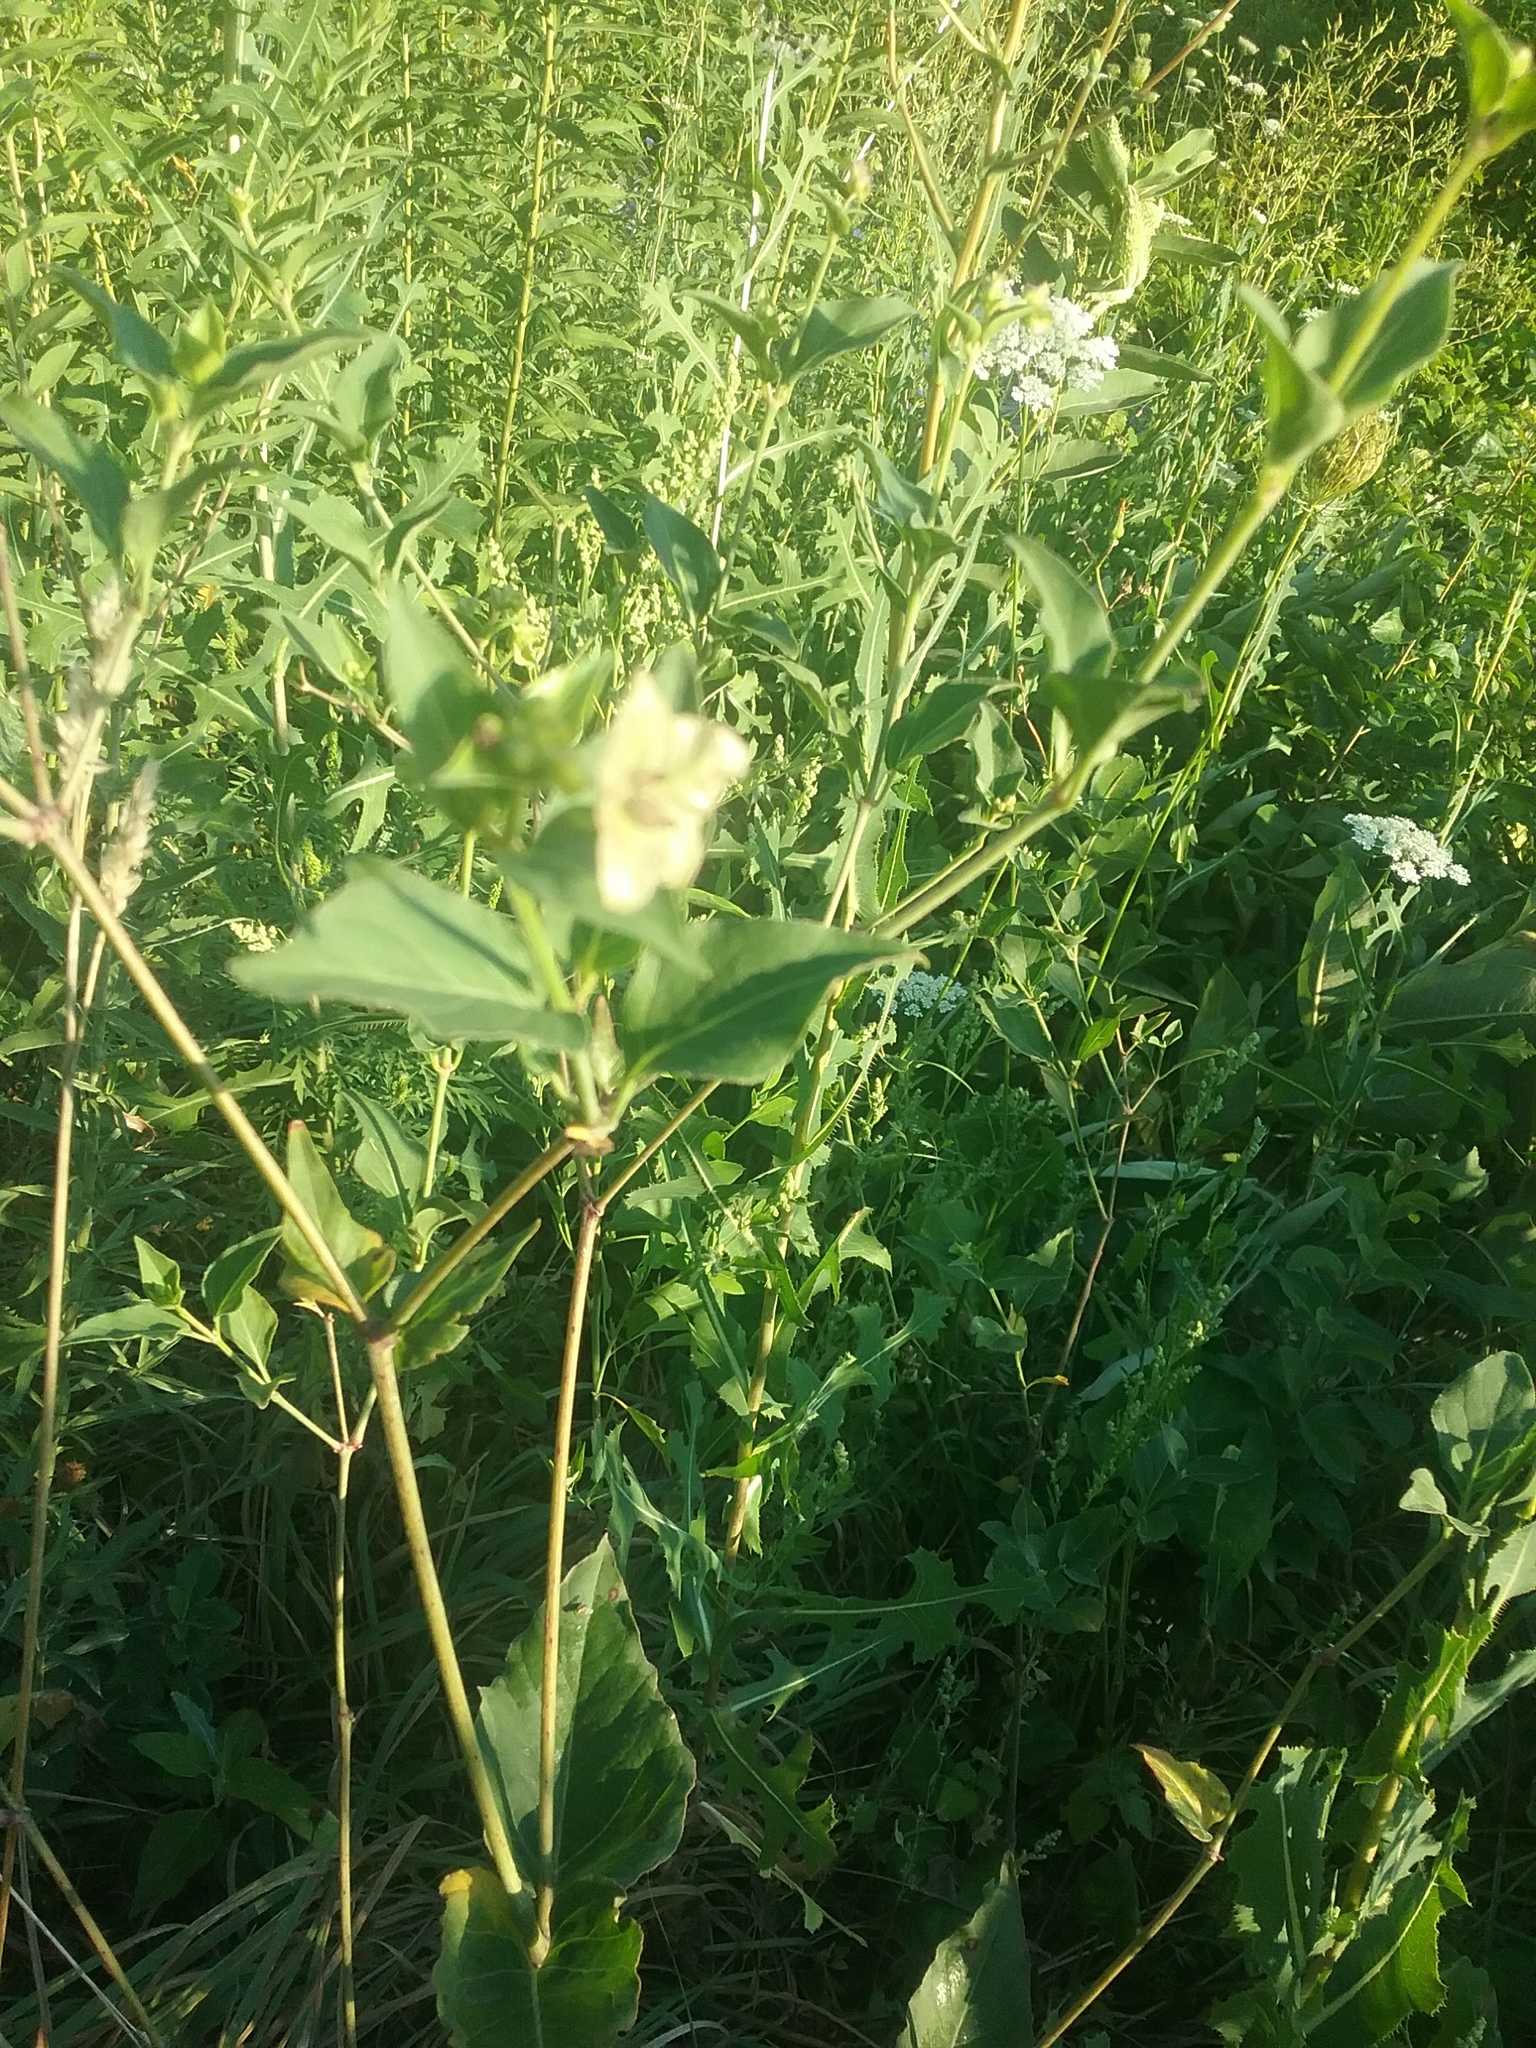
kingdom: Plantae
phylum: Tracheophyta
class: Magnoliopsida
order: Caryophyllales
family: Nyctaginaceae
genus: Mirabilis
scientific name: Mirabilis nyctaginea
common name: Umbrella wort
